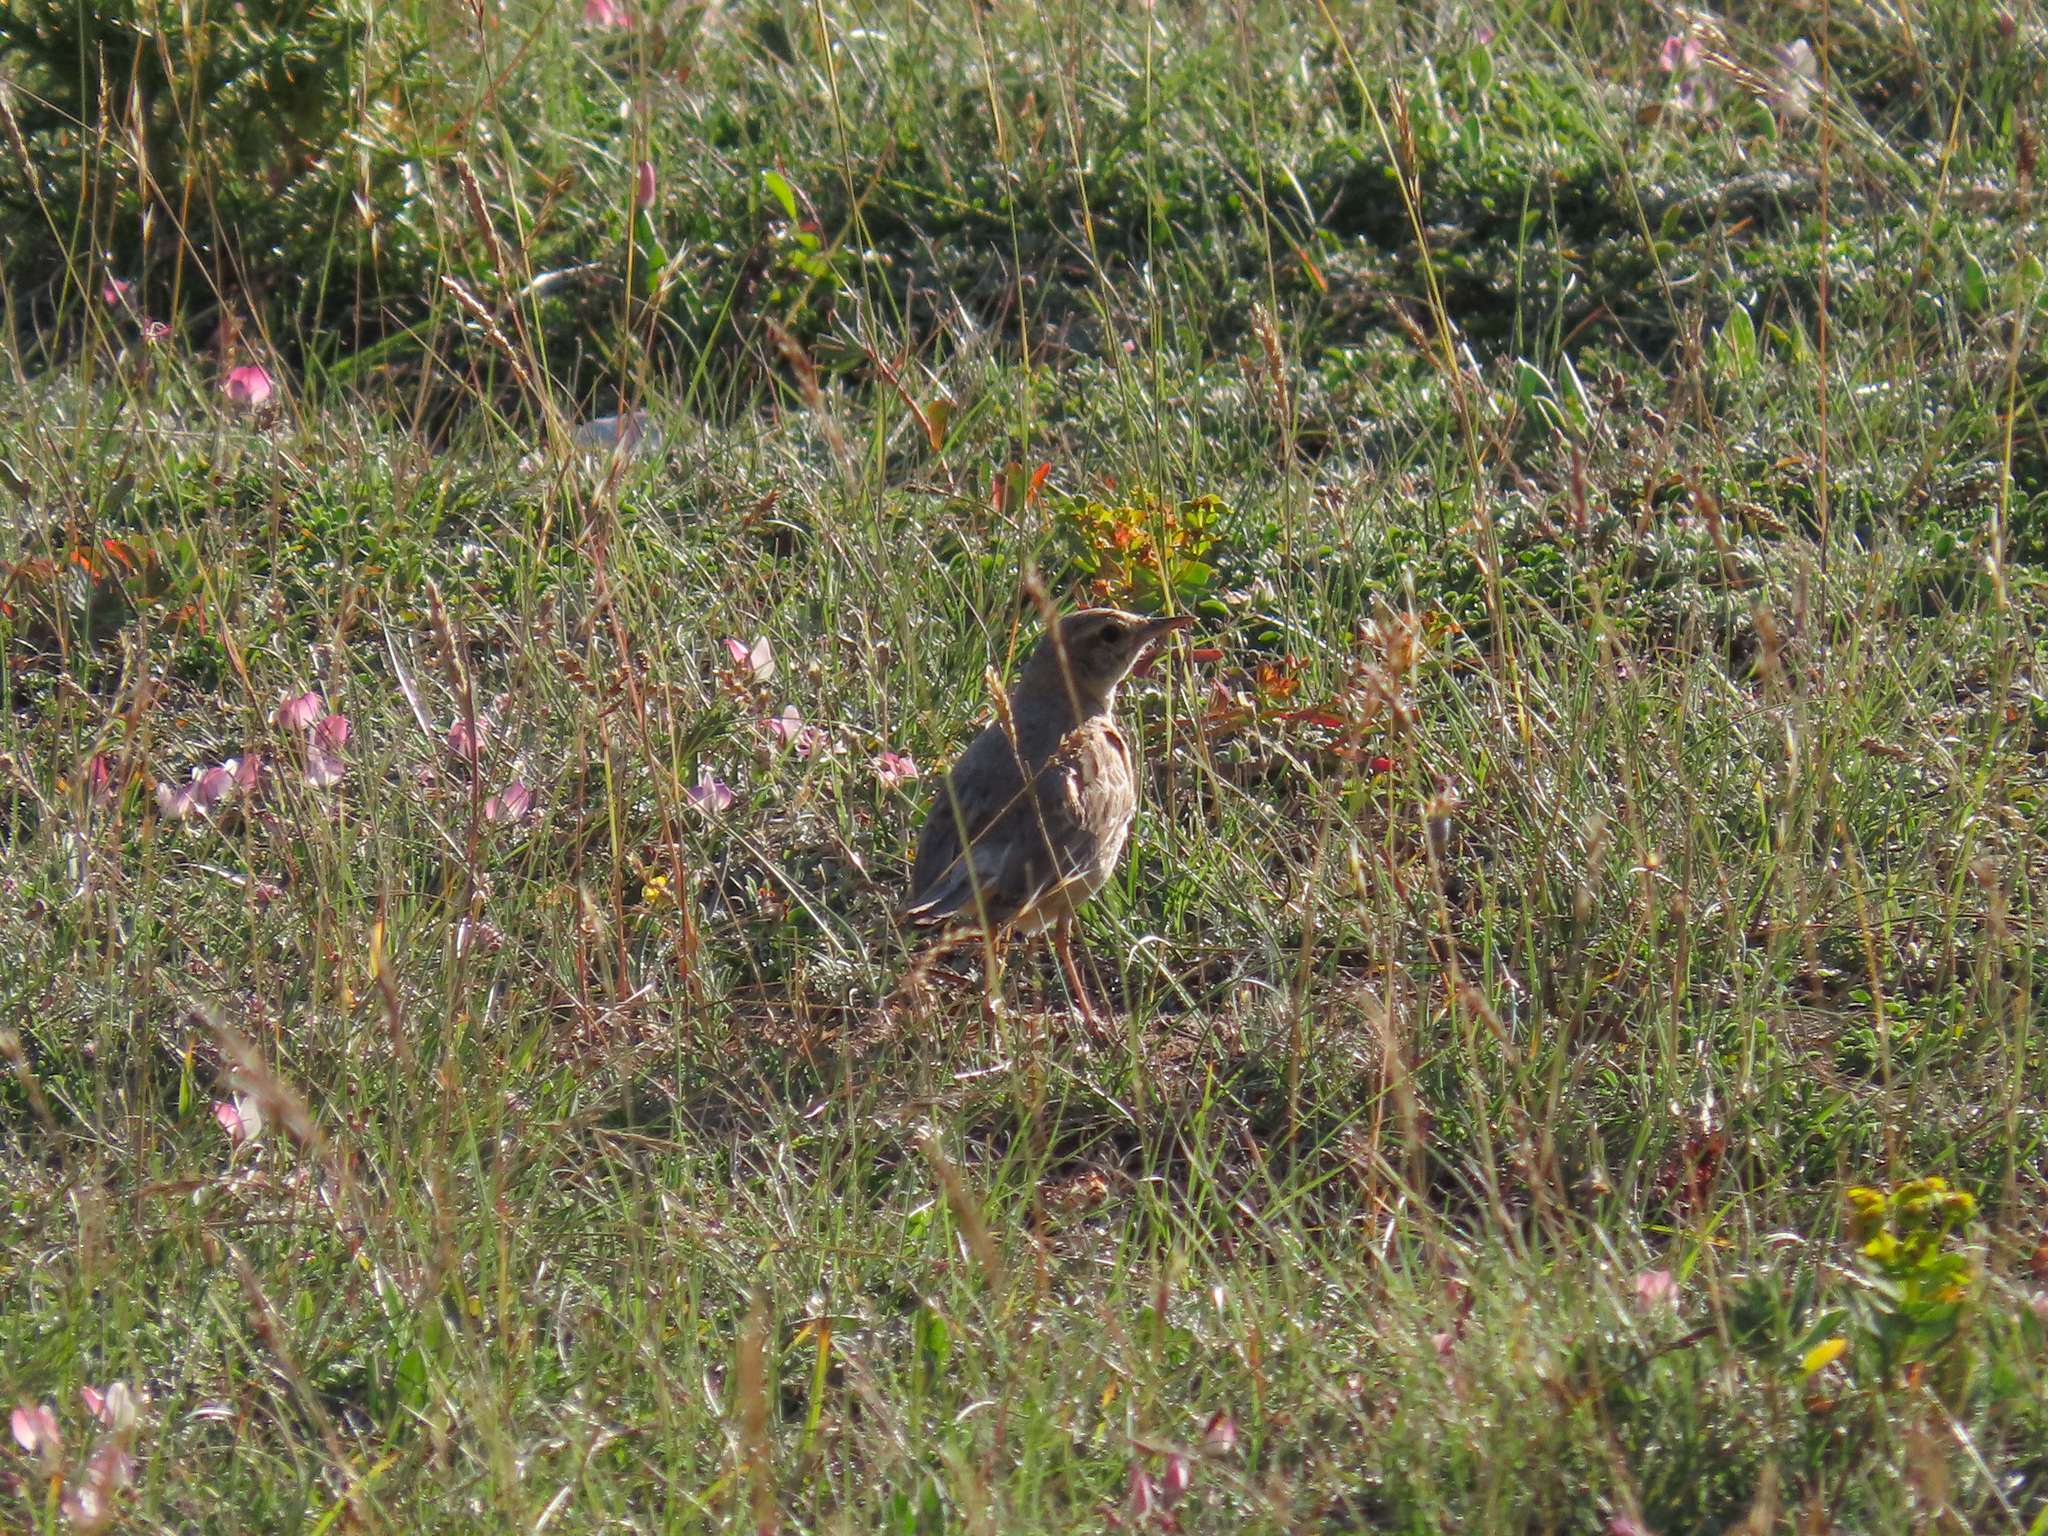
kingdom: Animalia
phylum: Chordata
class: Aves
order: Passeriformes
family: Motacillidae
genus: Anthus
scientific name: Anthus campestris
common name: Tawny pipit
